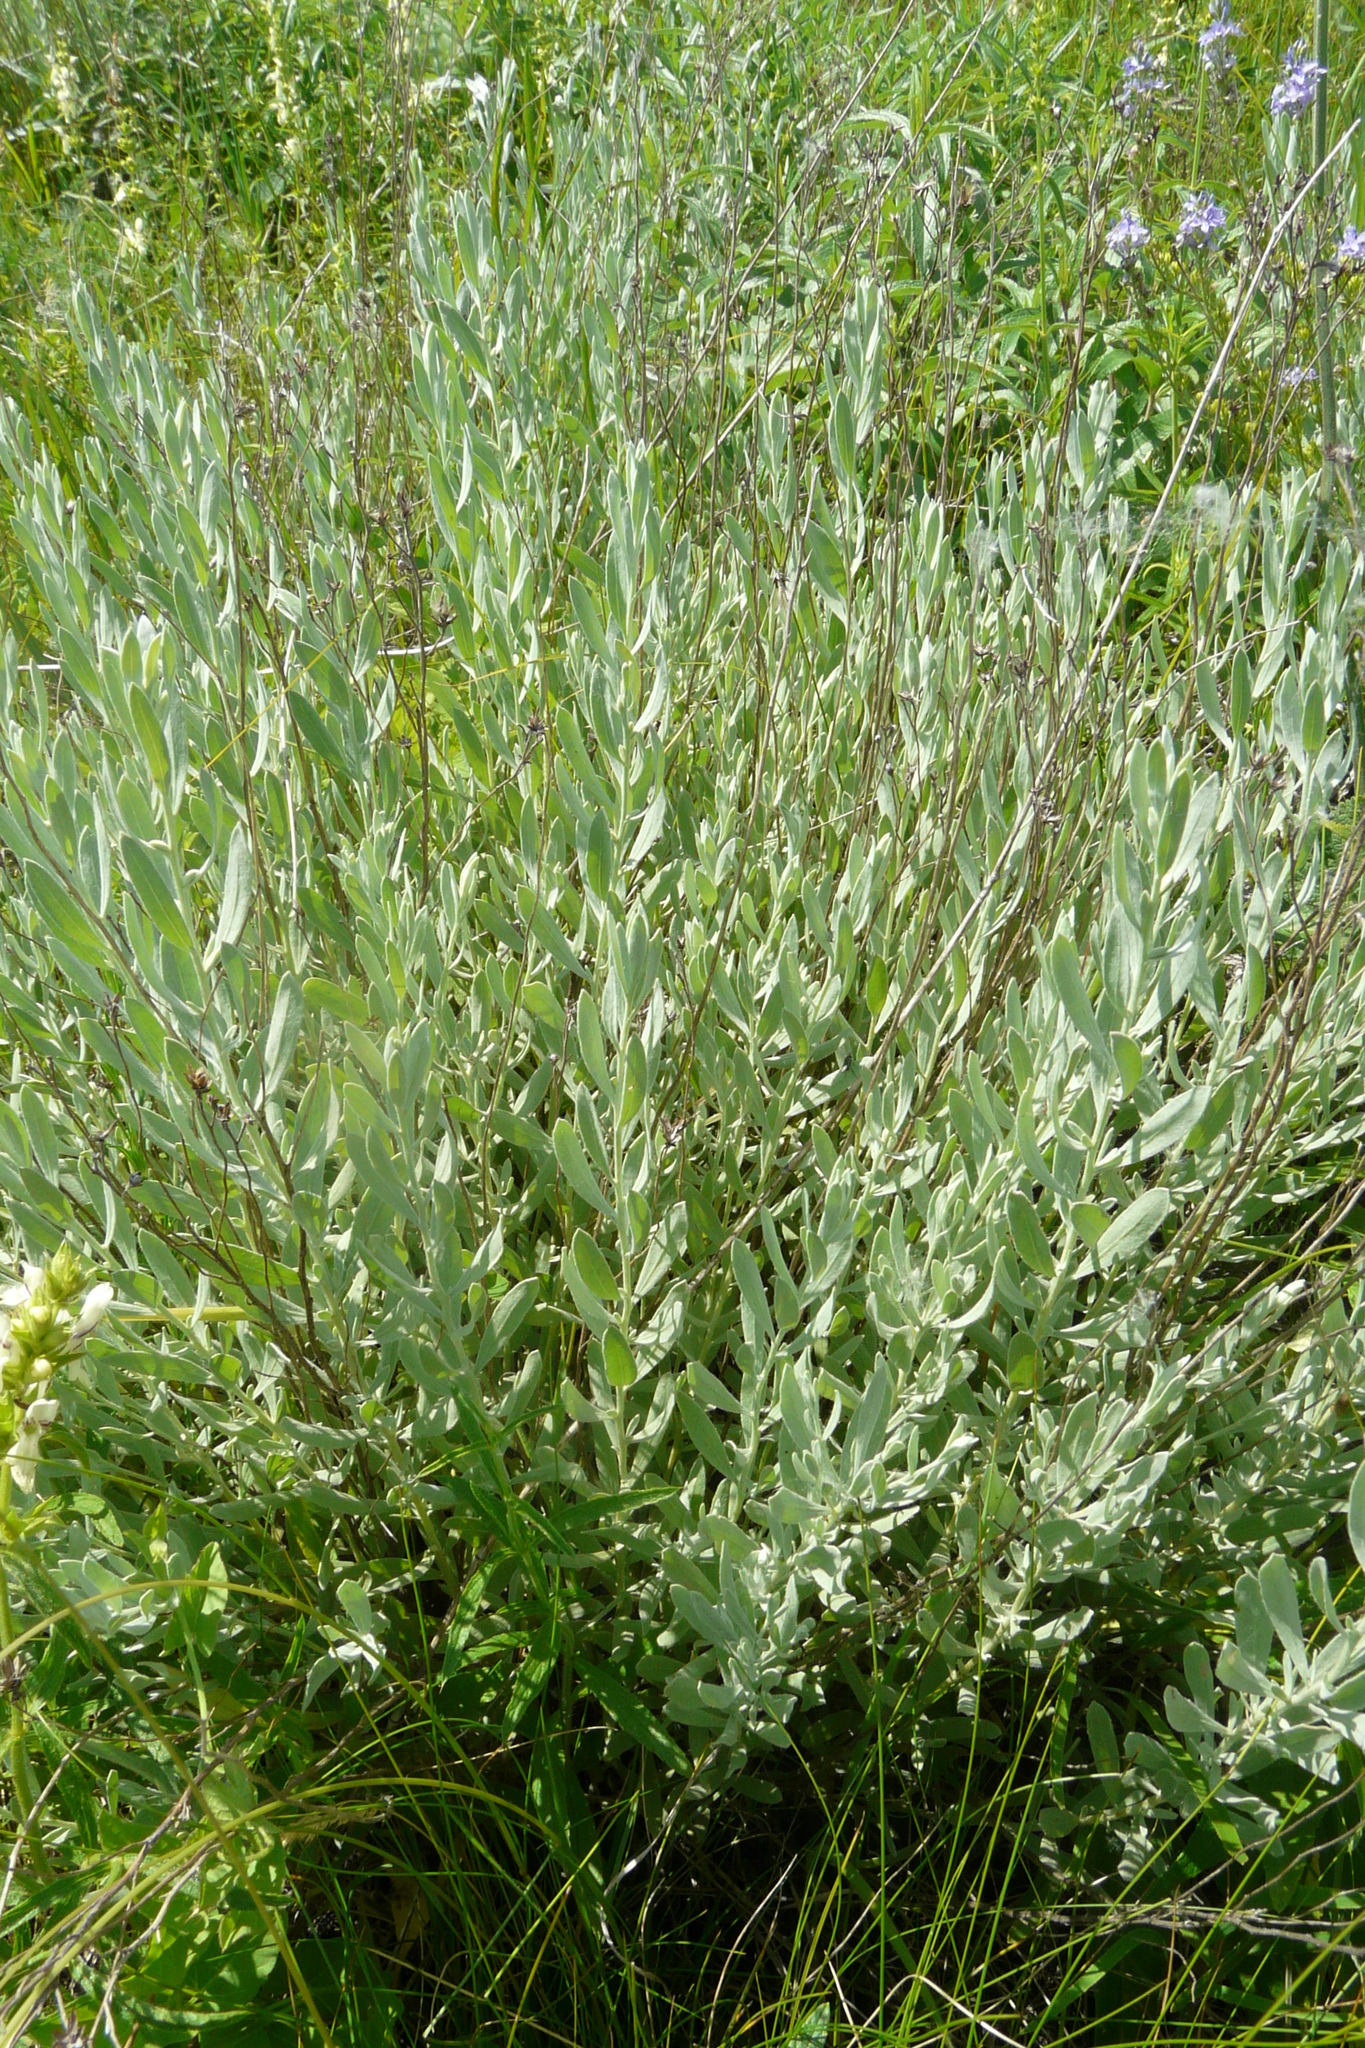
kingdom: Plantae
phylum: Tracheophyta
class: Magnoliopsida
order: Asterales
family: Asteraceae
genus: Galatella
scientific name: Galatella villosa
